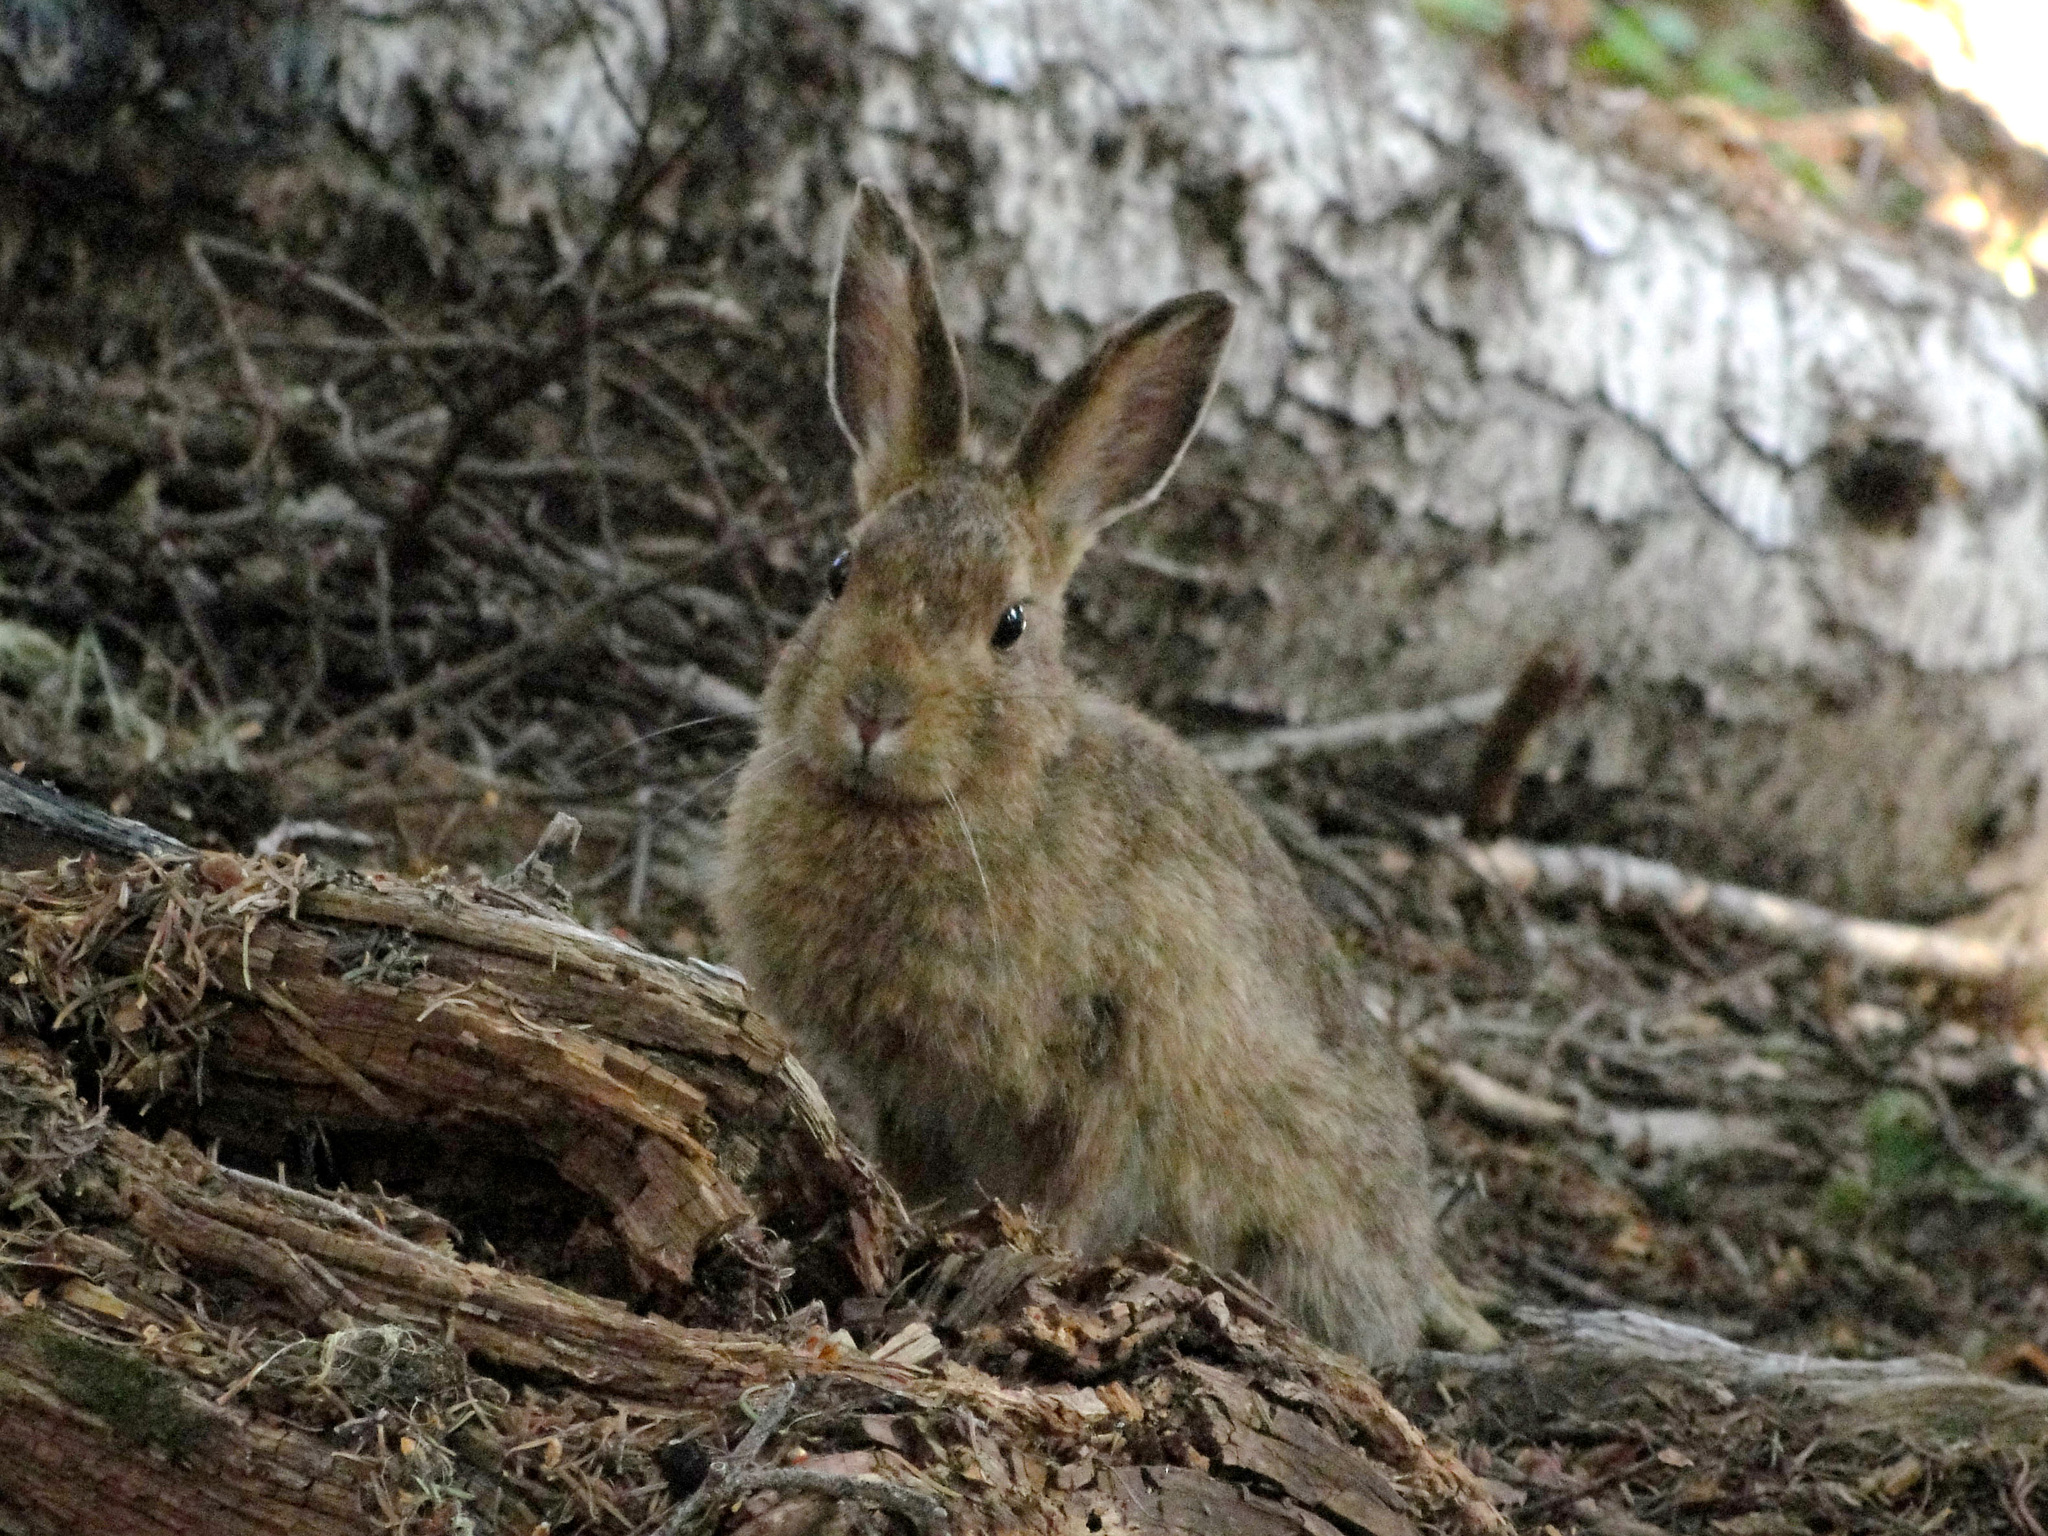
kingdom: Animalia
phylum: Chordata
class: Mammalia
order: Lagomorpha
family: Leporidae
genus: Lepus
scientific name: Lepus americanus
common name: Snowshoe hare
